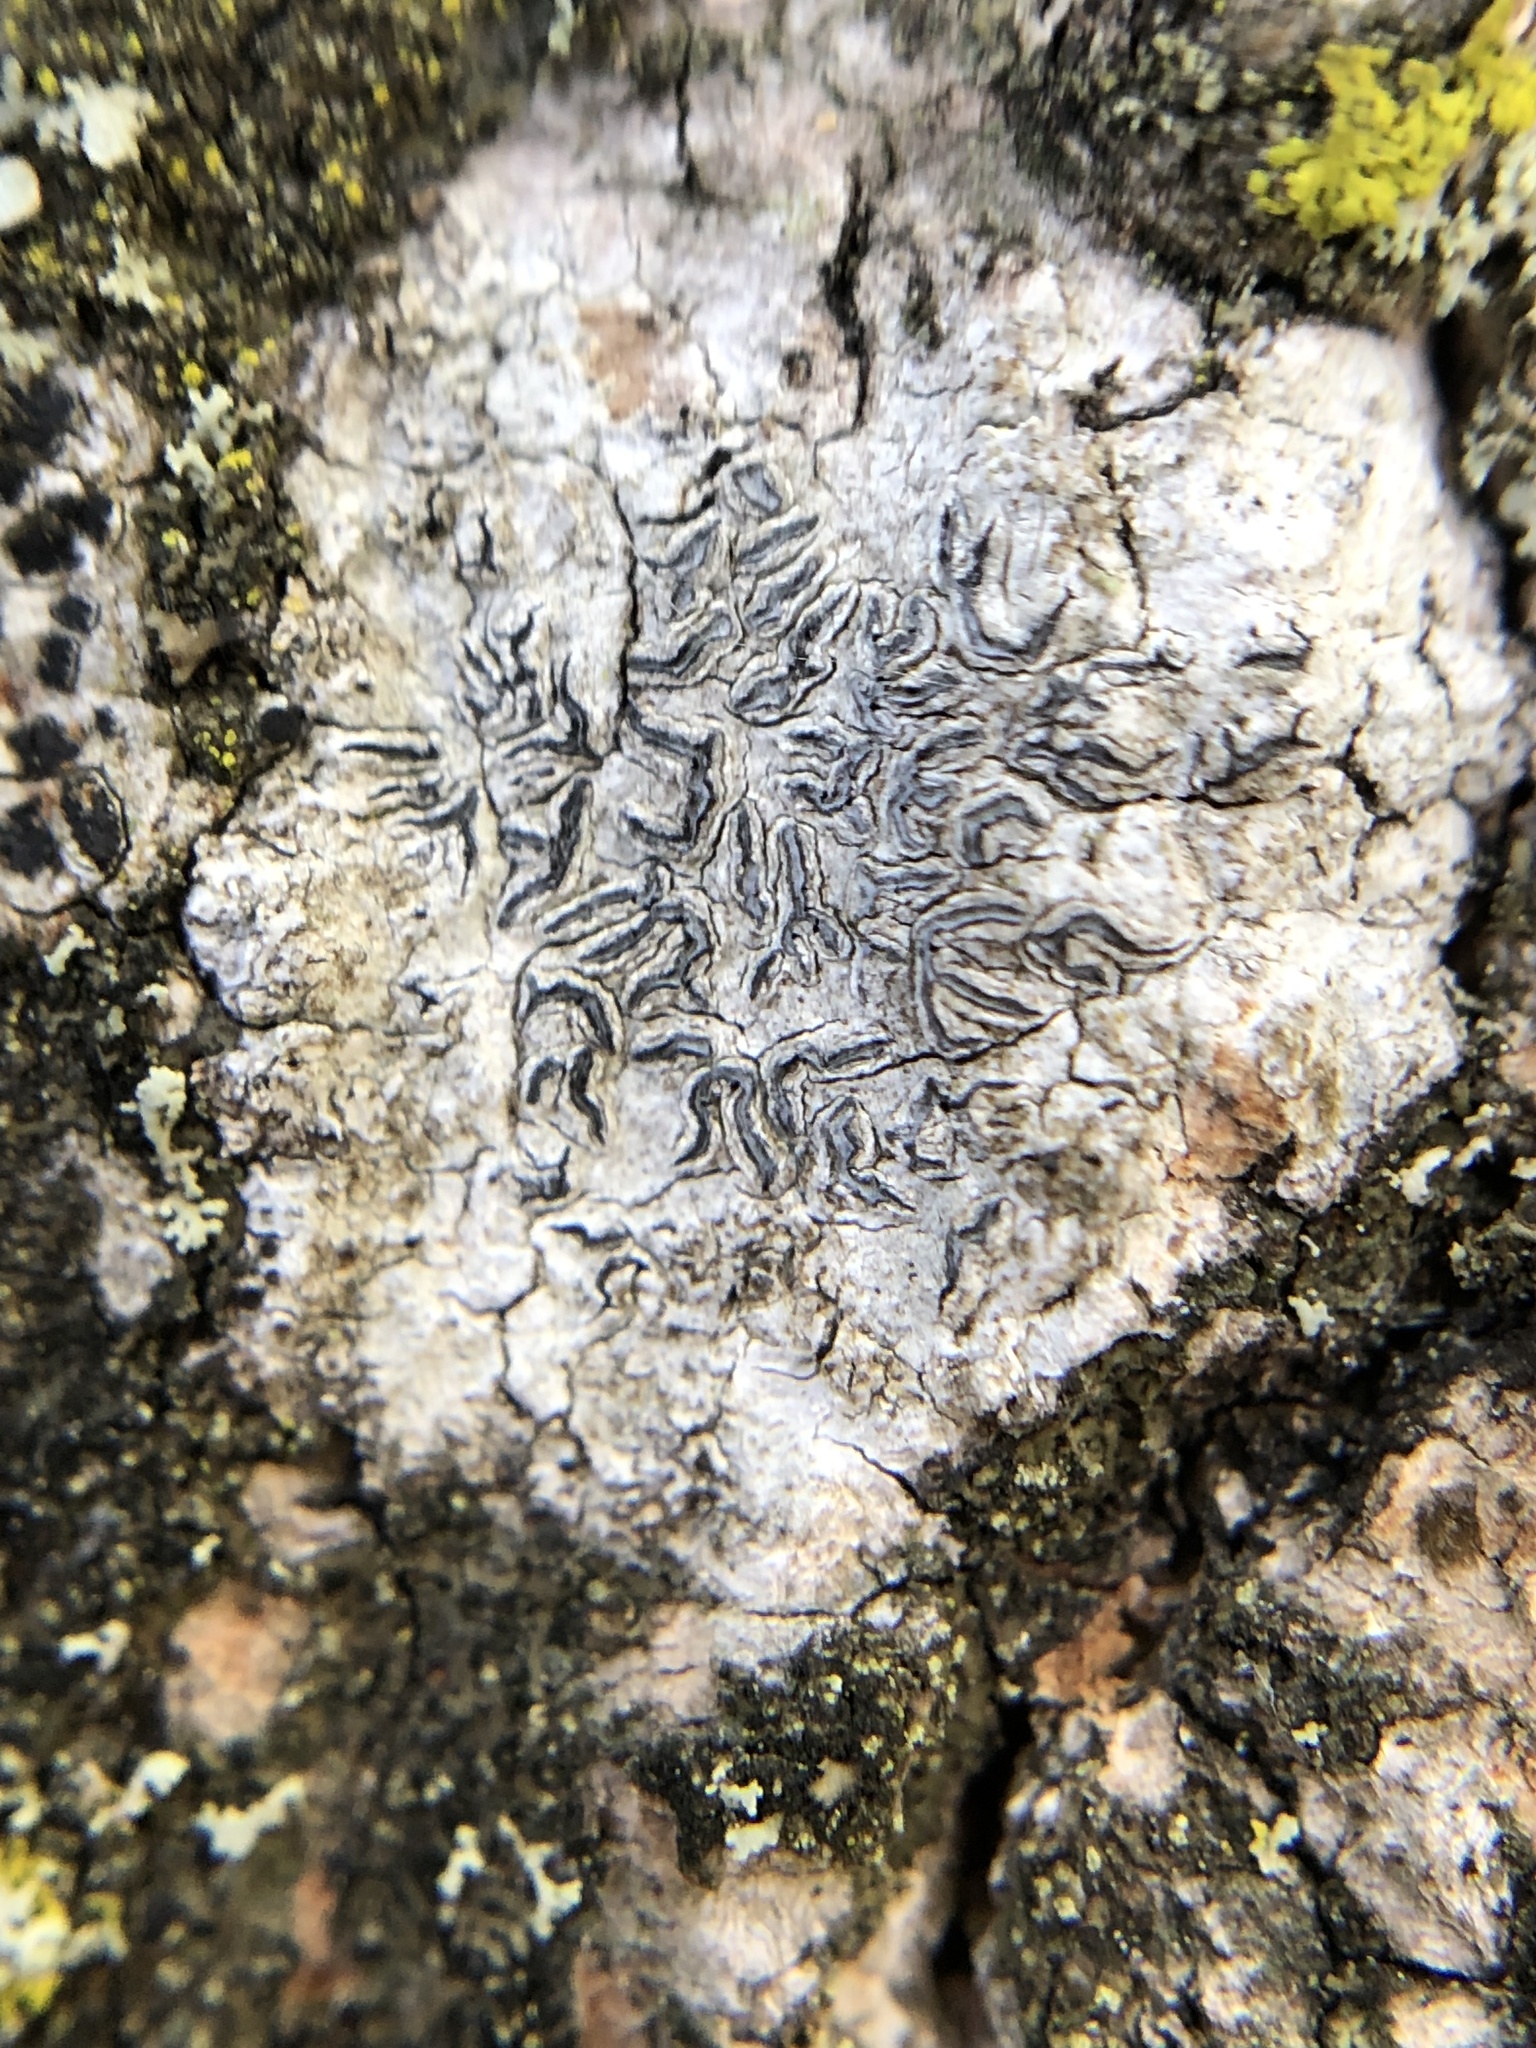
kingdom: Fungi
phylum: Ascomycota
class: Lecanoromycetes
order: Ostropales
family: Graphidaceae
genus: Graphis
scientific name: Graphis scripta
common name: Script lichen
